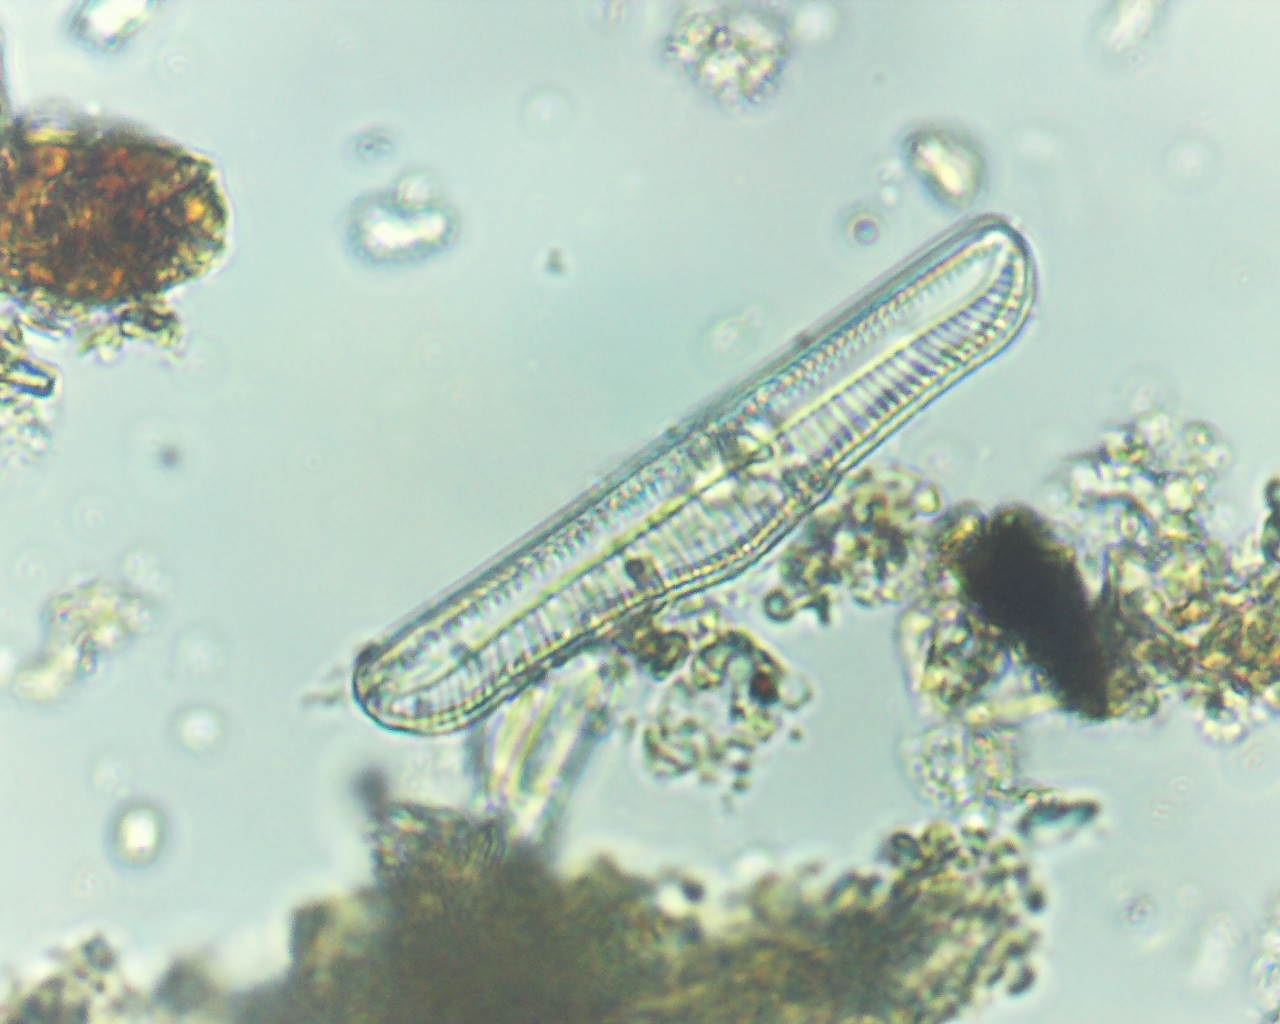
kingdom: Chromista
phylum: Ochrophyta
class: Bacillariophyceae
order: Rhopalodiales
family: Rhopalodiaceae
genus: Epithemia
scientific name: Epithemia gibba
